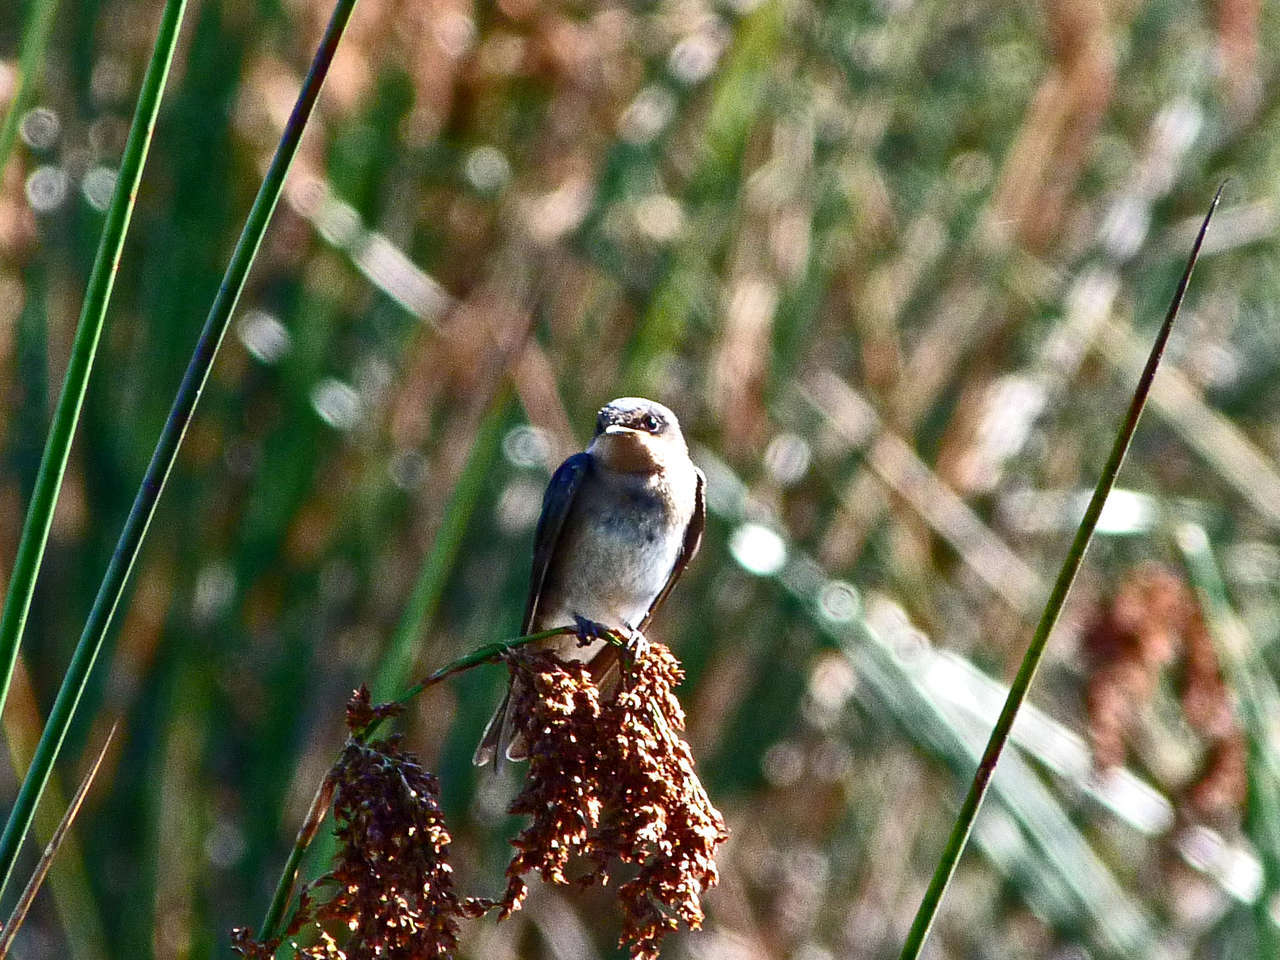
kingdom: Animalia
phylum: Chordata
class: Aves
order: Passeriformes
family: Hirundinidae
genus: Hirundo
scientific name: Hirundo neoxena
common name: Welcome swallow
